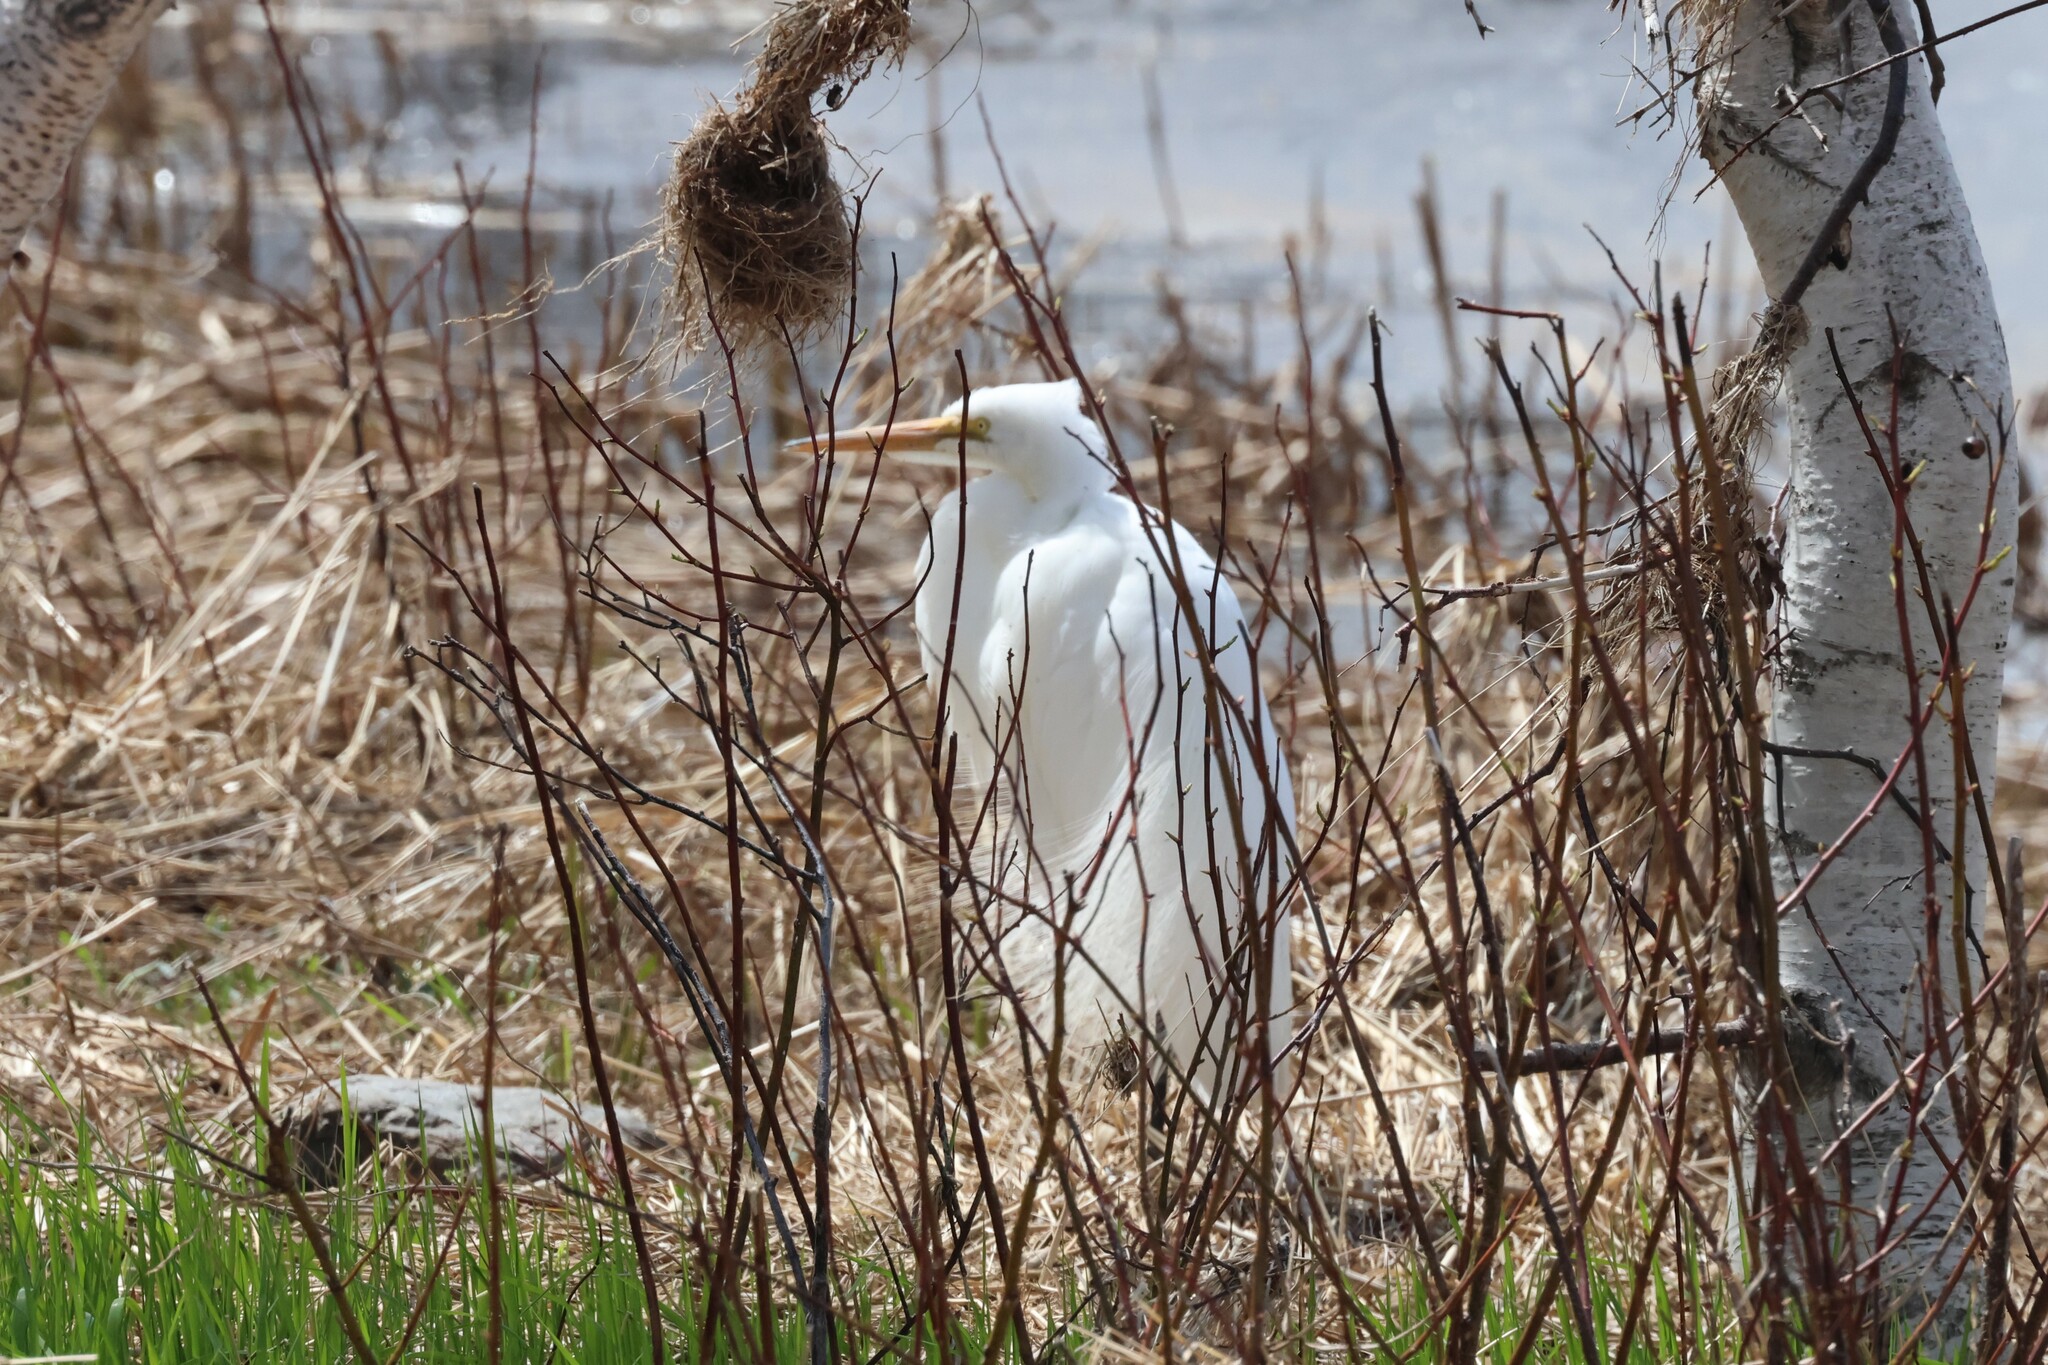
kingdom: Animalia
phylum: Chordata
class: Aves
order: Pelecaniformes
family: Ardeidae
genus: Ardea
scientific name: Ardea alba
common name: Great egret
